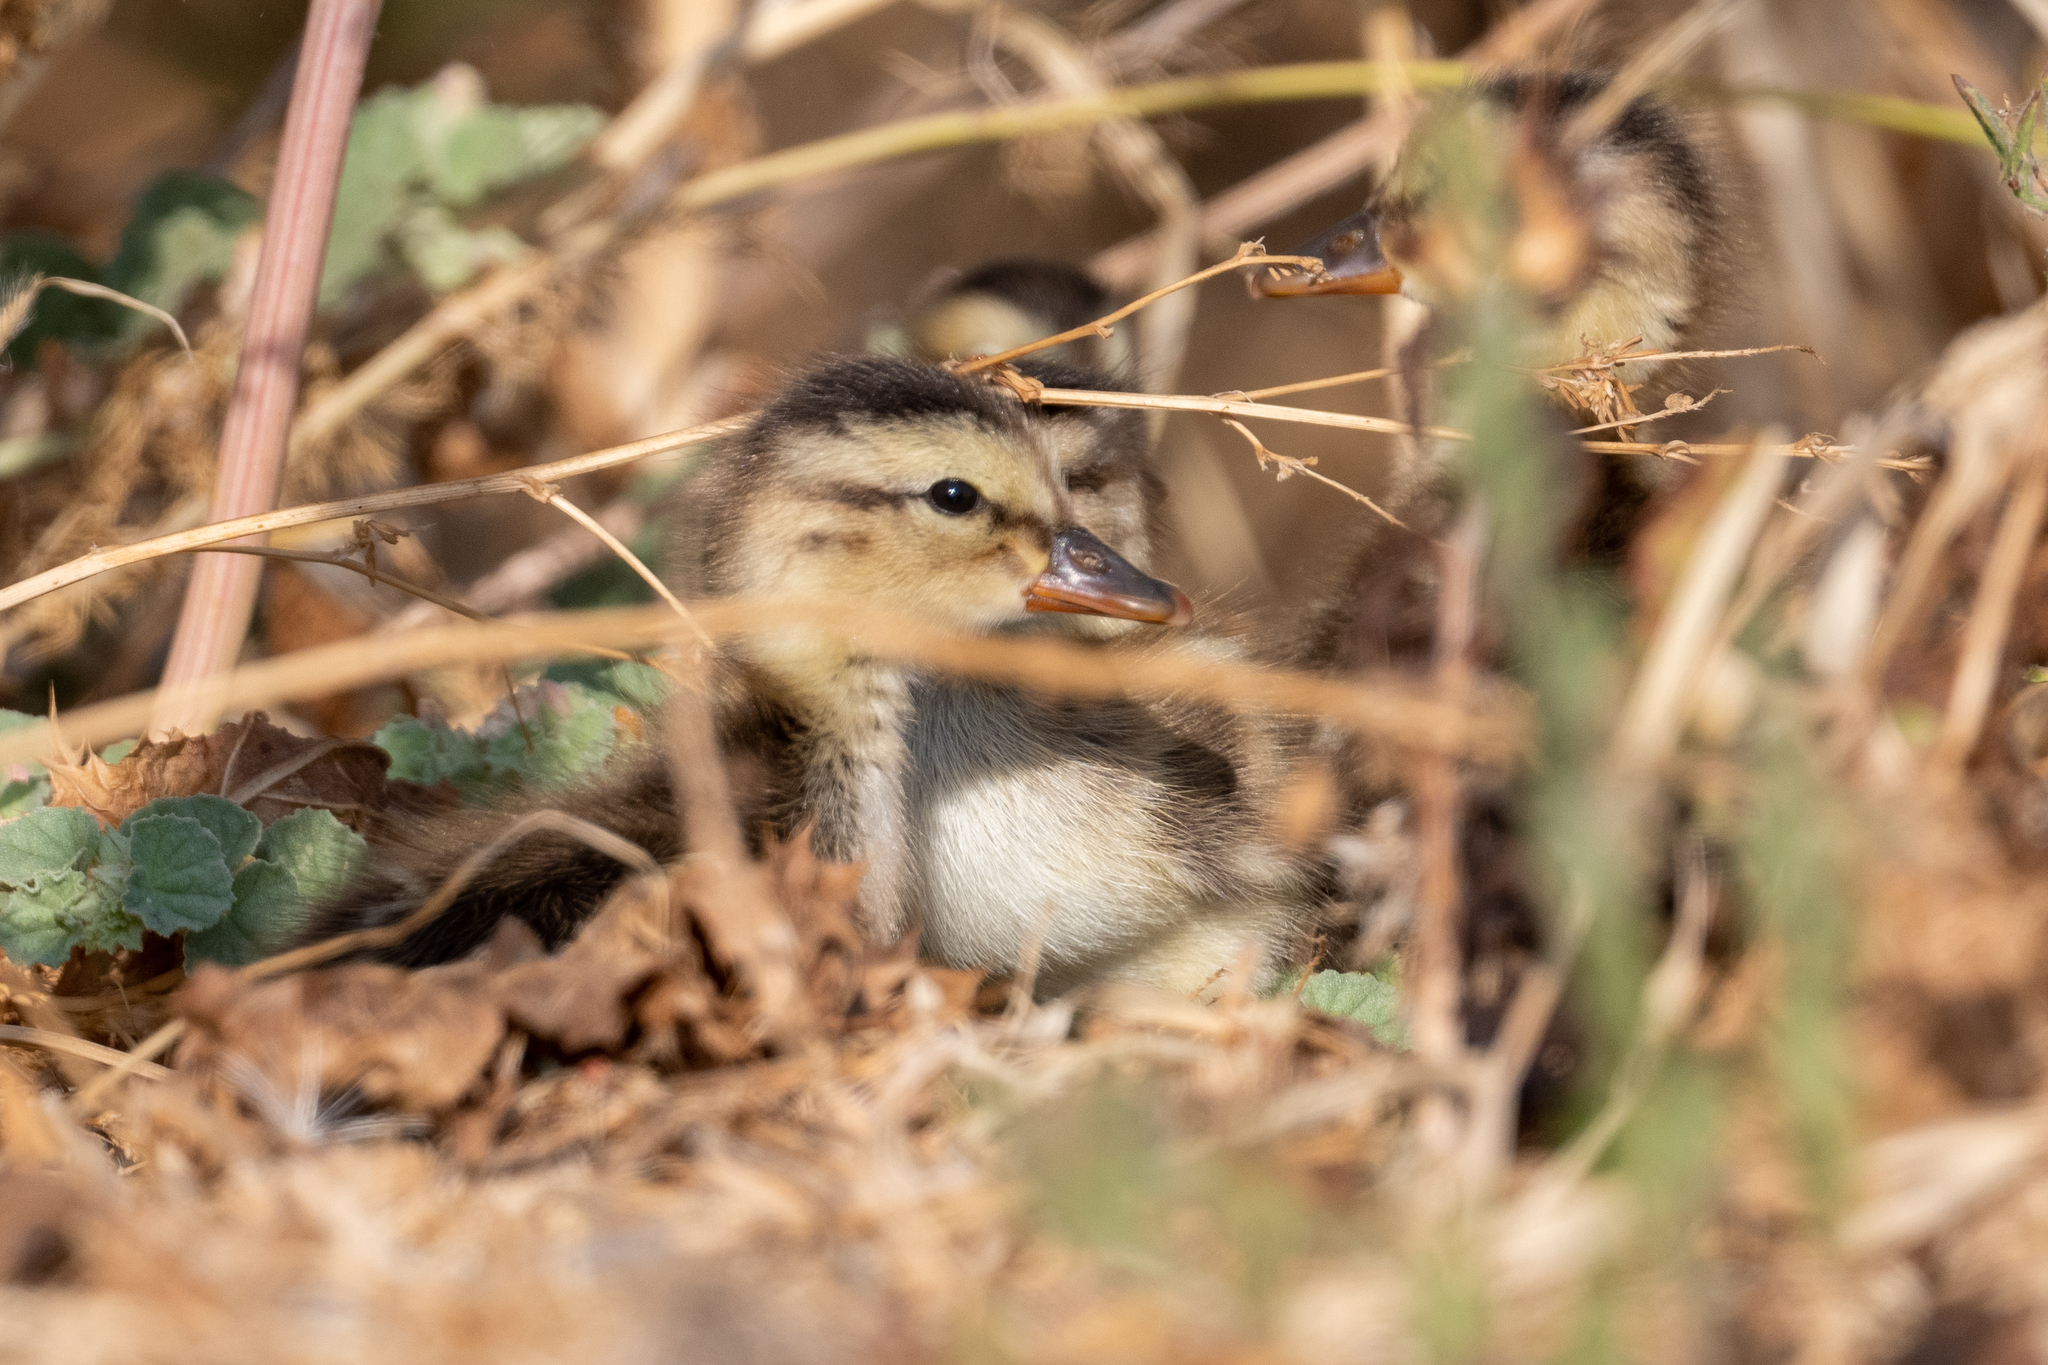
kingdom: Animalia
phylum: Chordata
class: Aves
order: Anseriformes
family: Anatidae
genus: Anas
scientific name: Anas platyrhynchos
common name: Mallard
